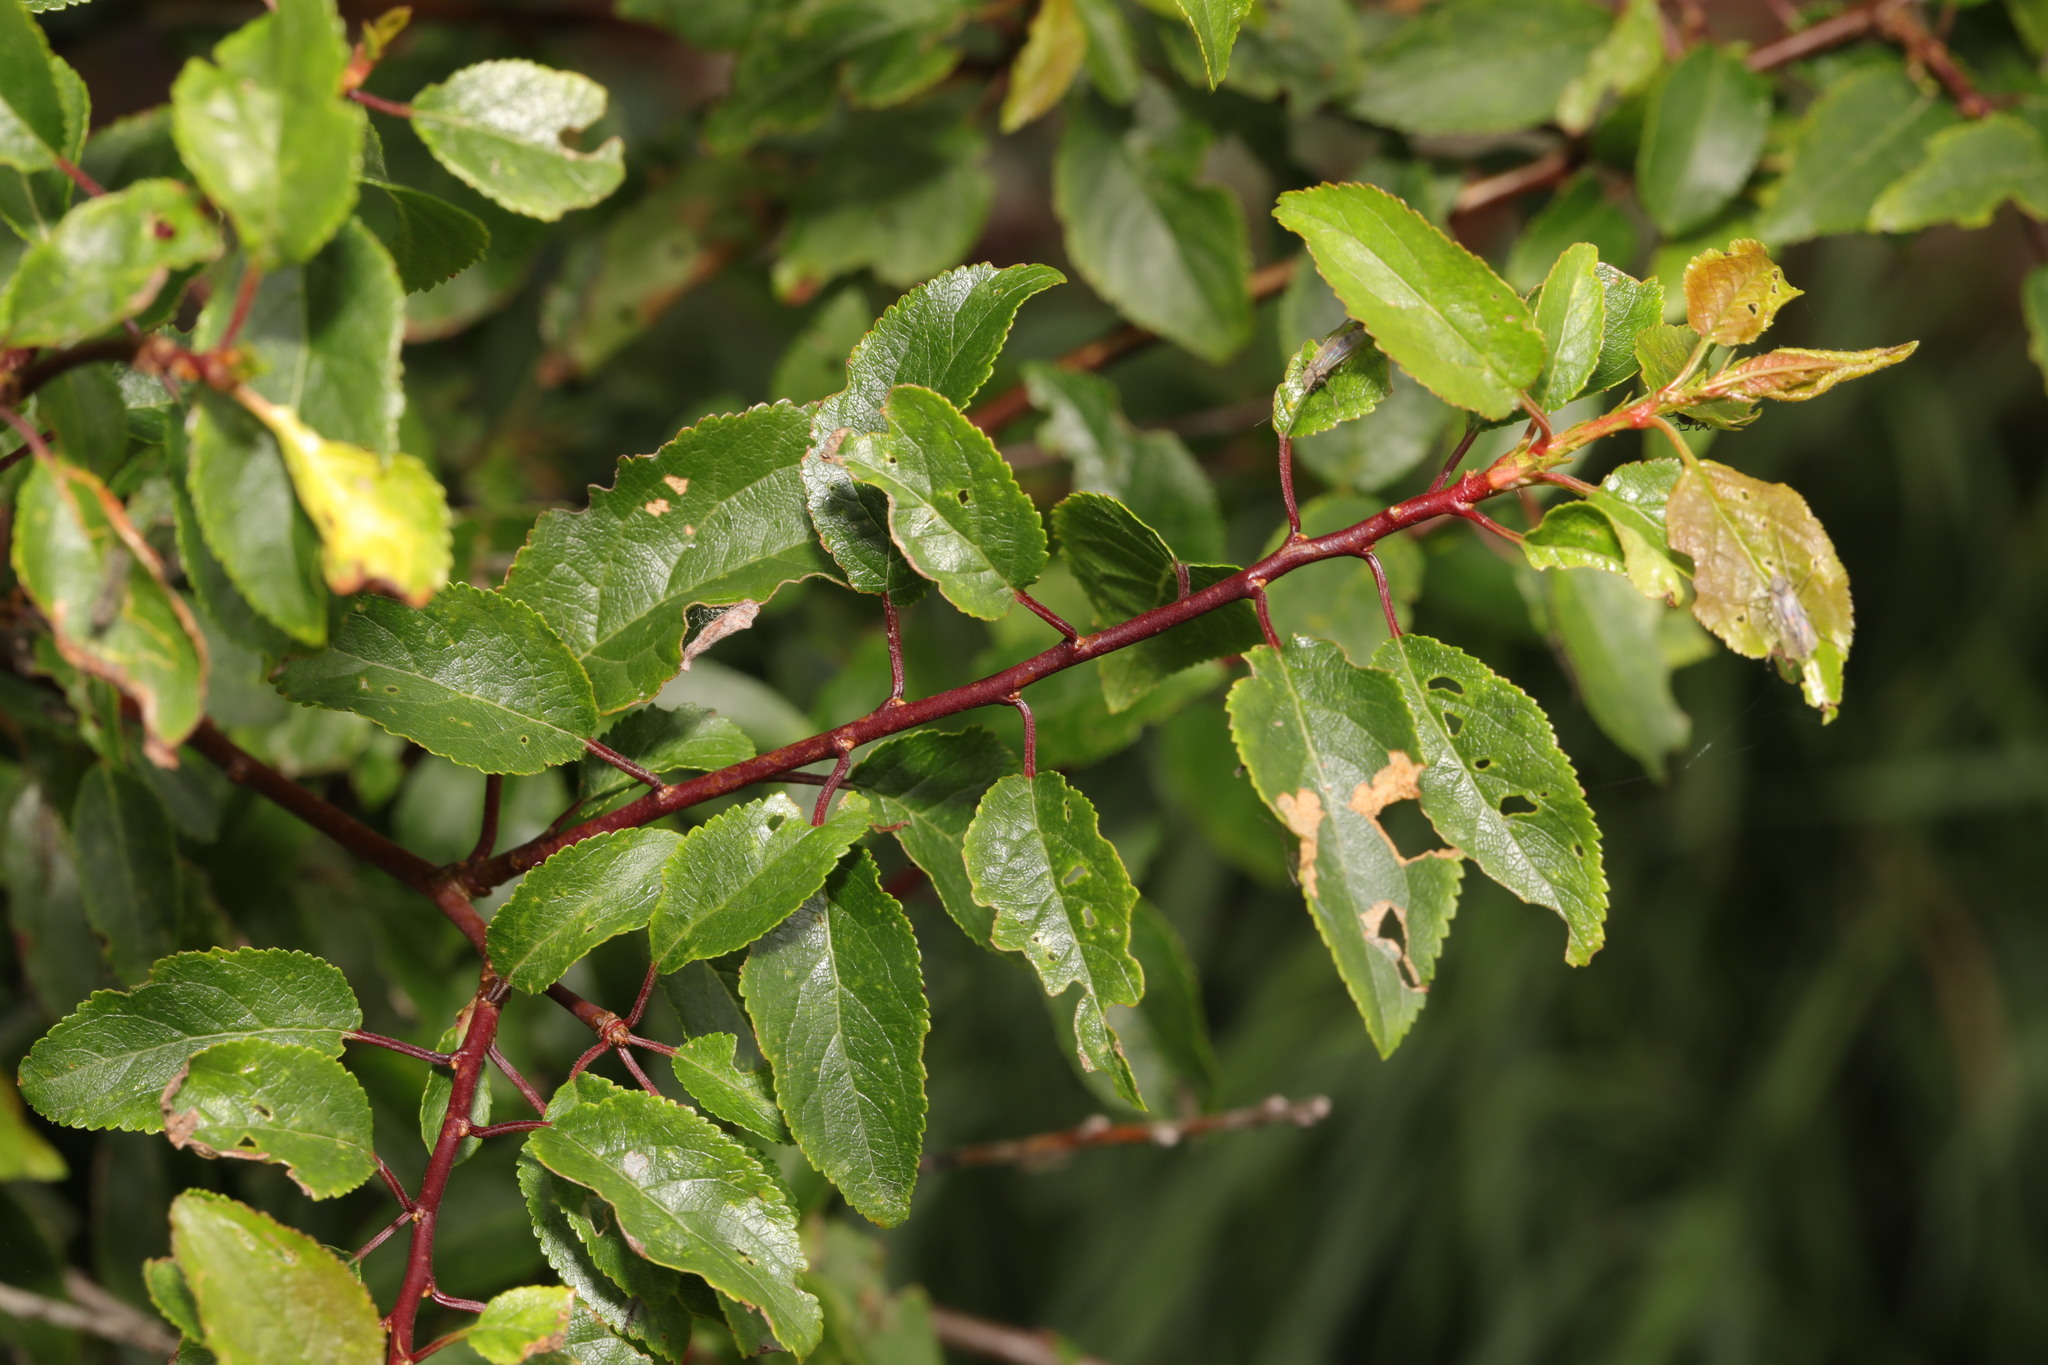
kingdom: Plantae
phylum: Tracheophyta
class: Magnoliopsida
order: Rosales
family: Rosaceae
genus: Prunus
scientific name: Prunus spinosa
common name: Blackthorn
